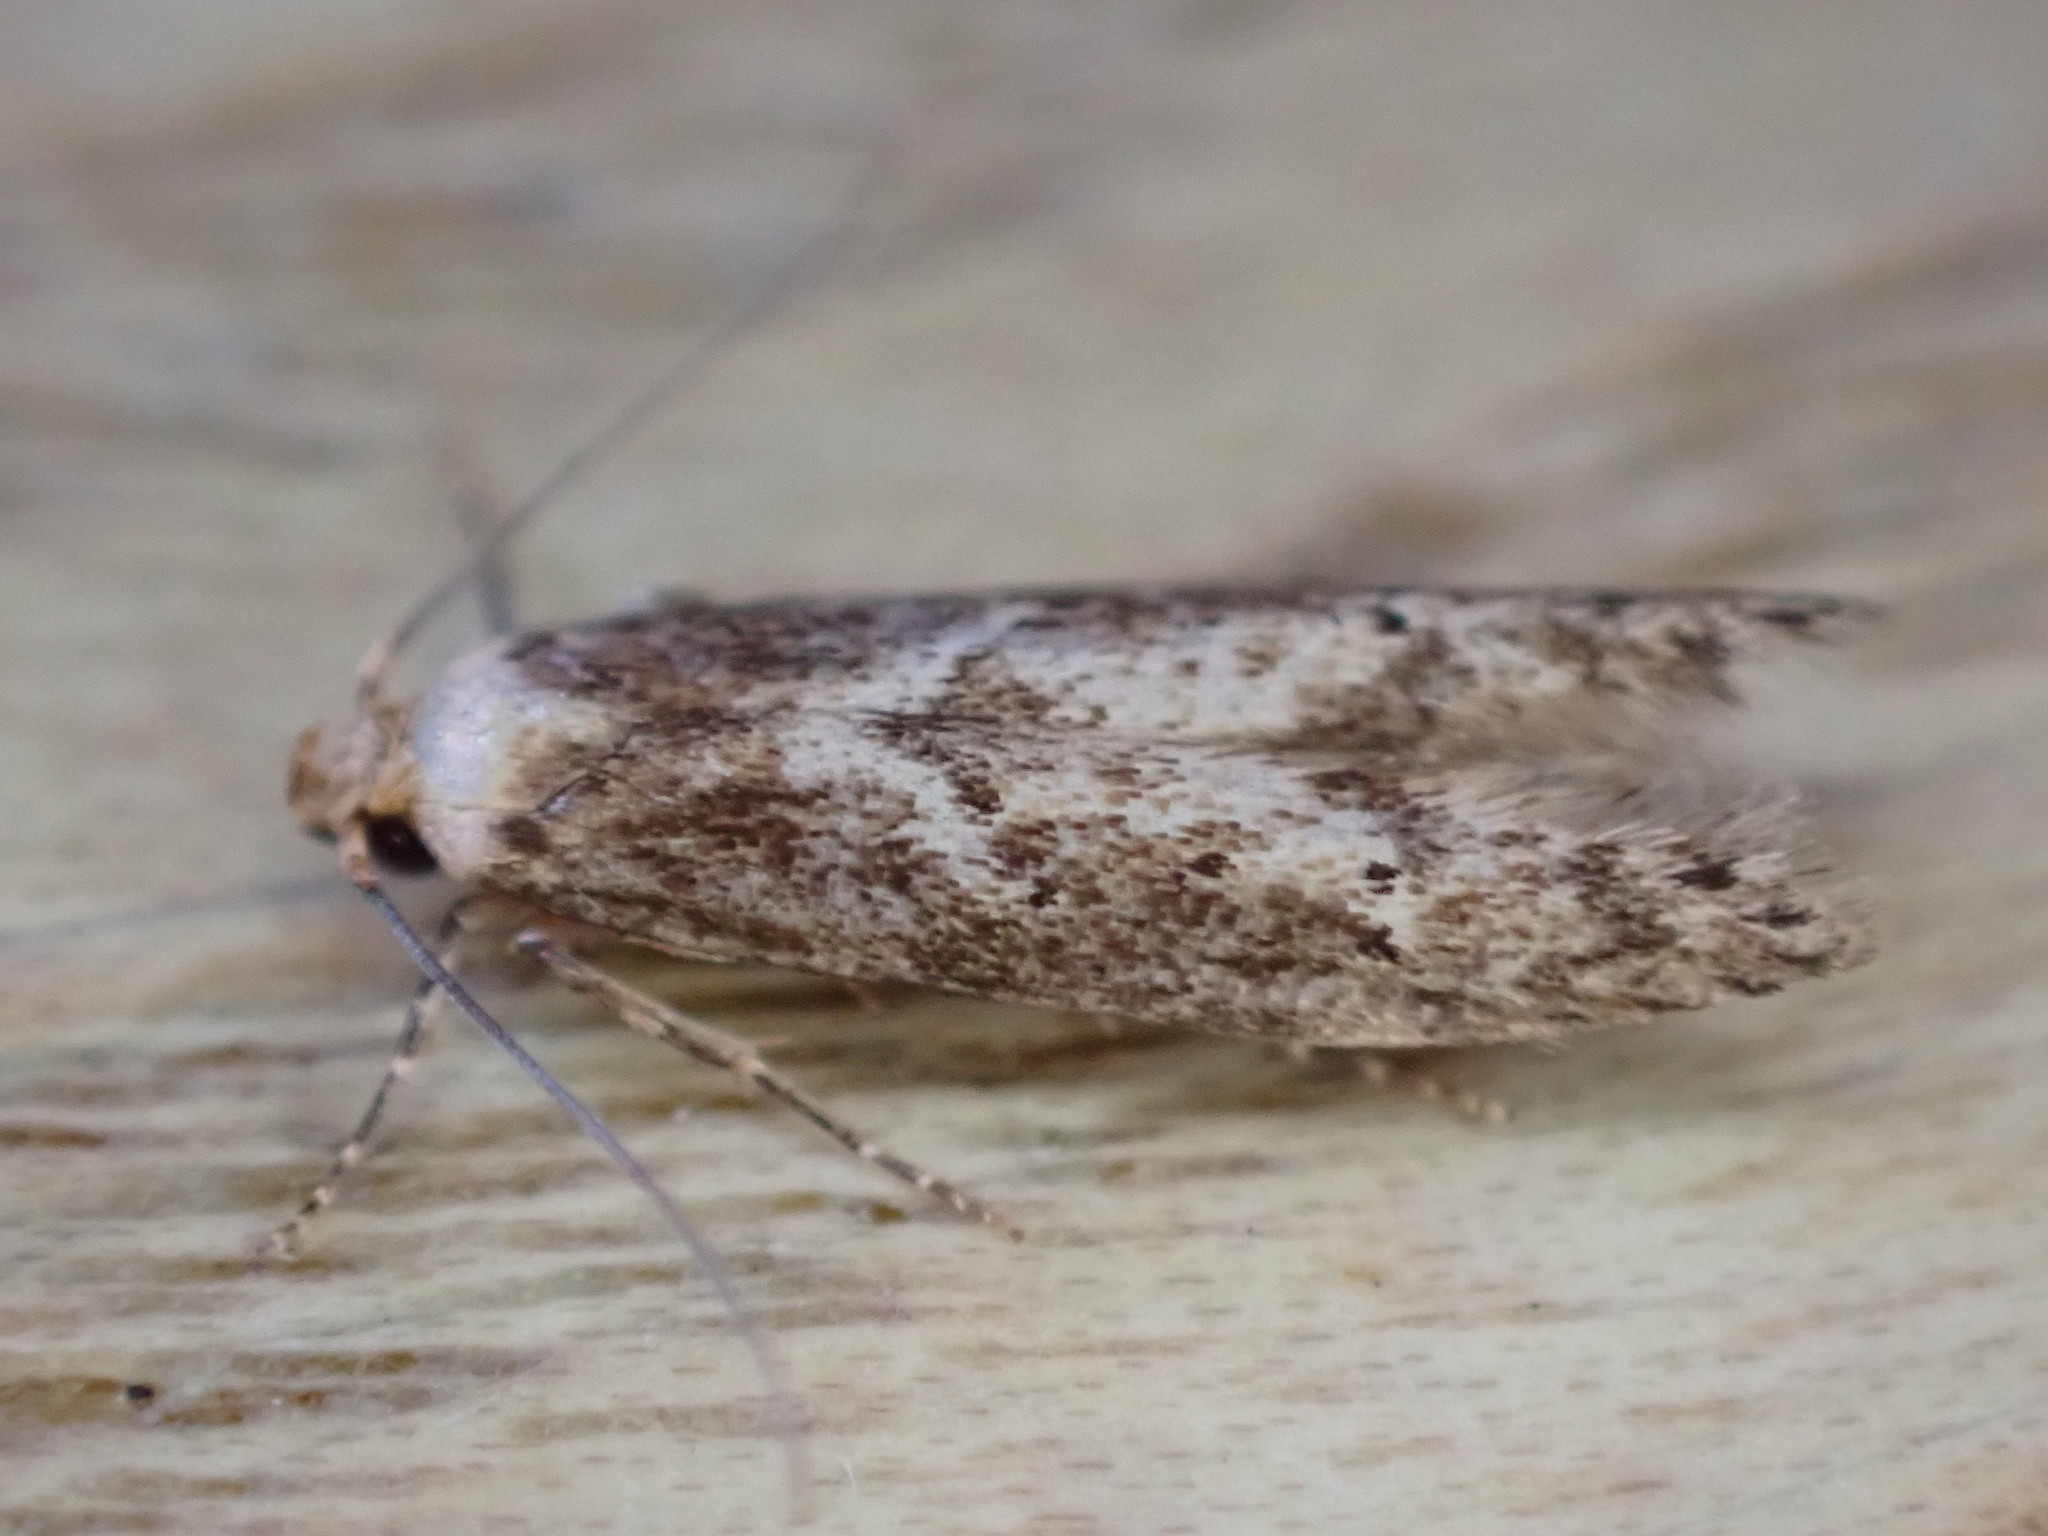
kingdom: Animalia
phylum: Arthropoda
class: Insecta
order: Lepidoptera
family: Blastobasidae
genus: Blastobasis
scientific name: Blastobasis adustella
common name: Dingy dowd
